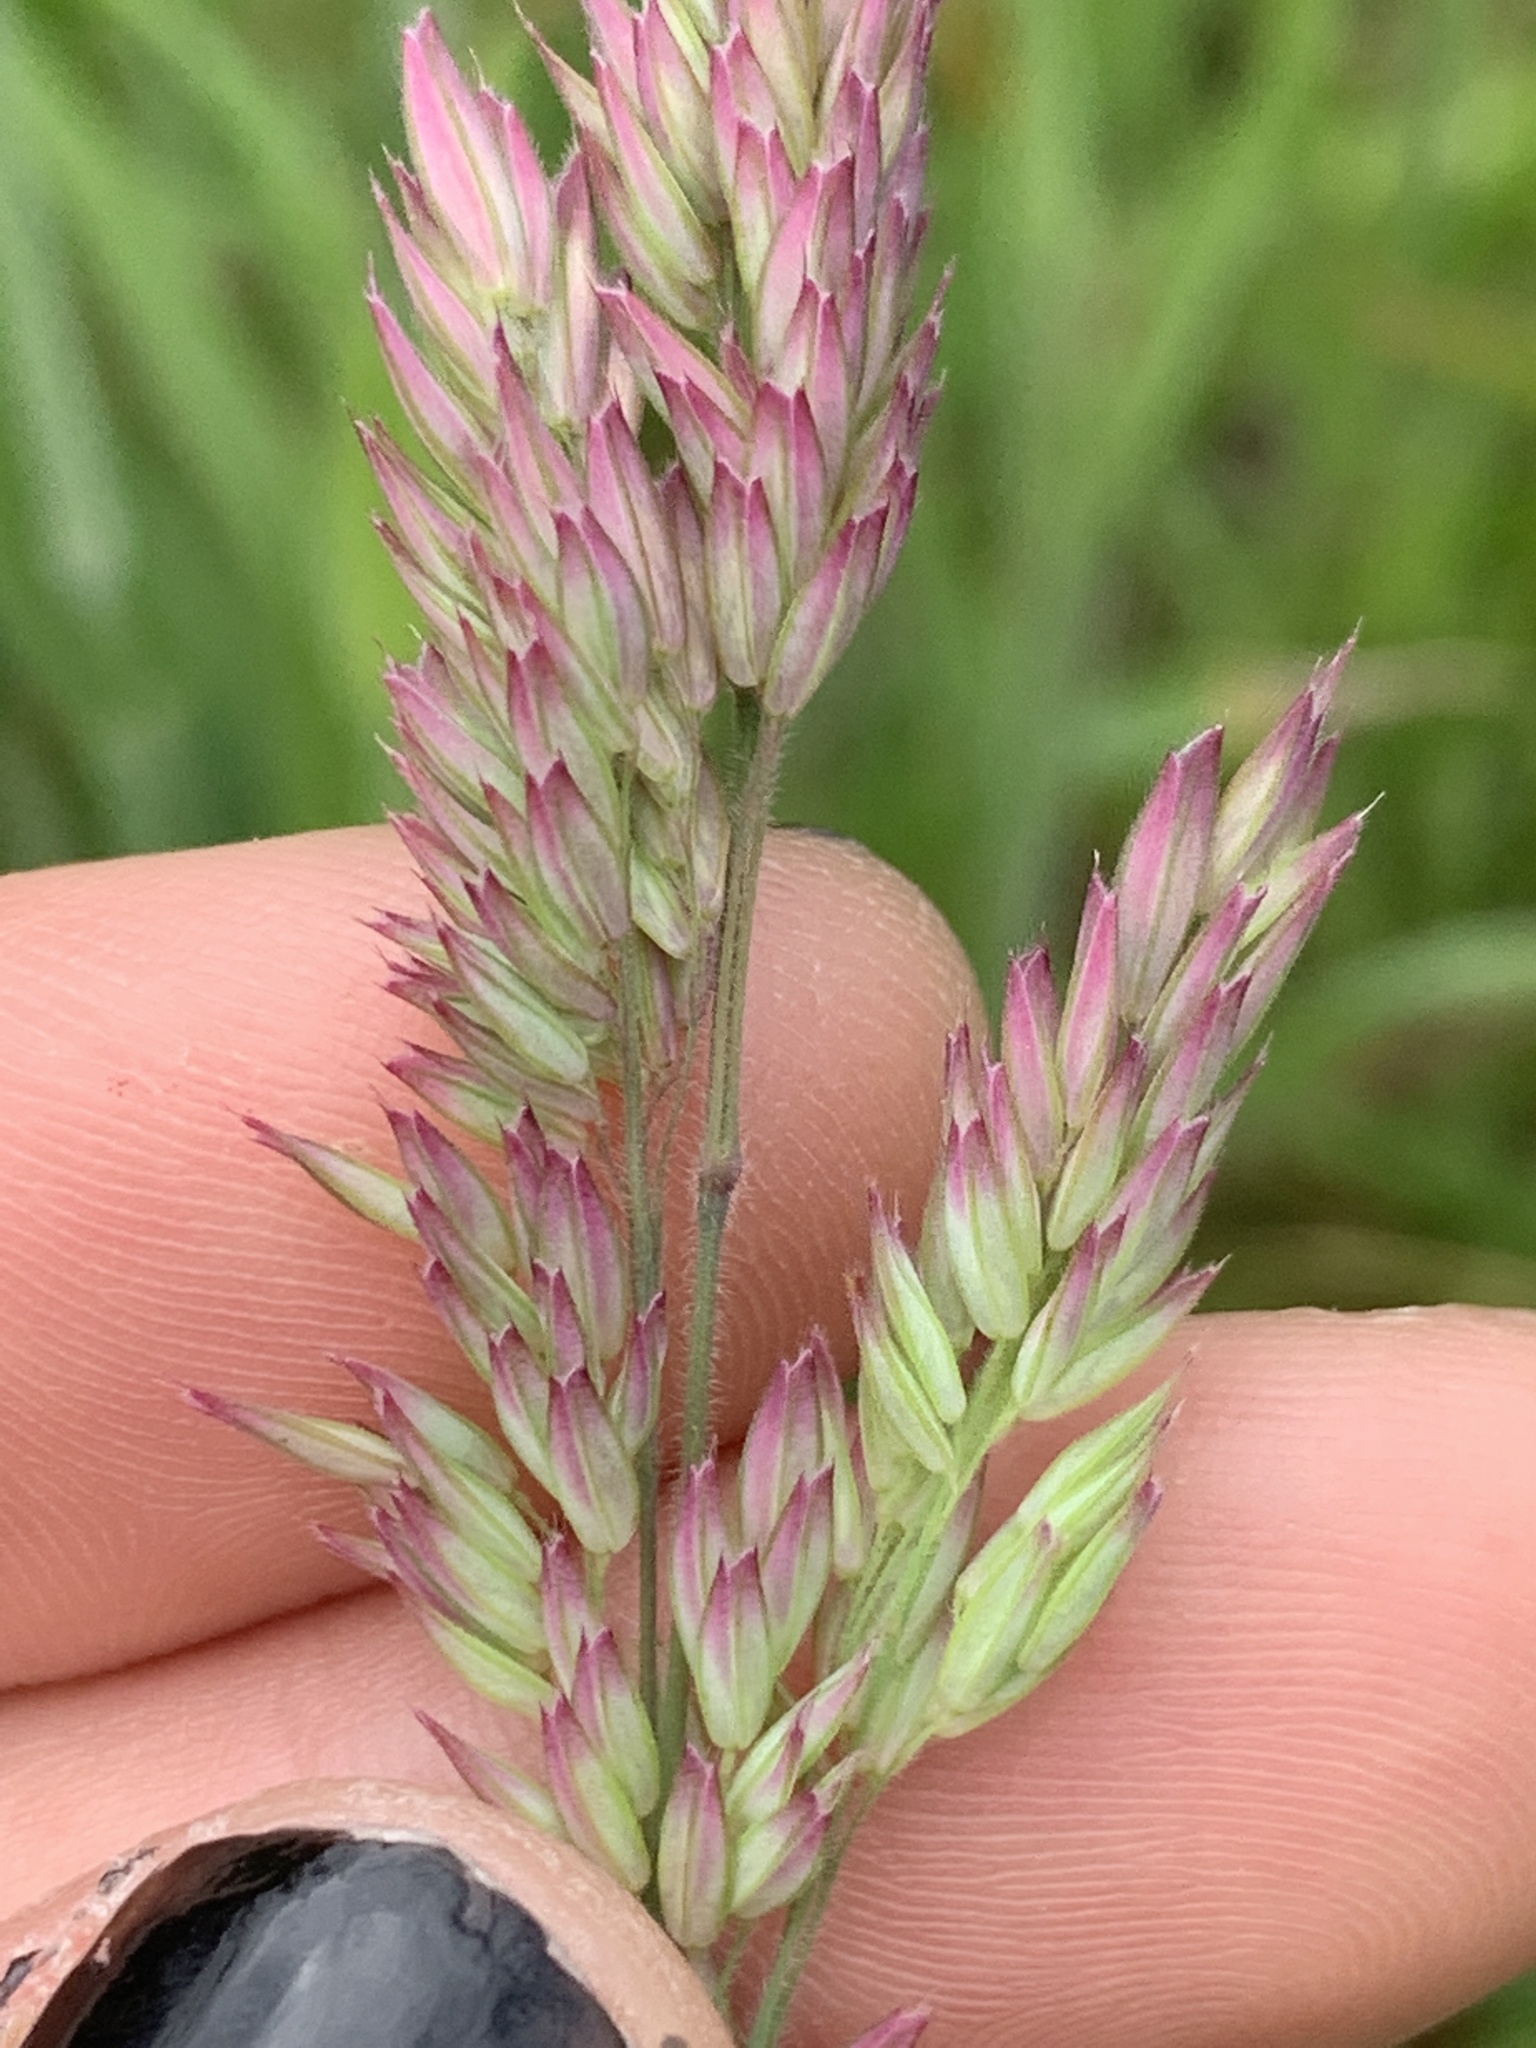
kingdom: Plantae
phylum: Tracheophyta
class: Liliopsida
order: Poales
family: Poaceae
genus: Holcus
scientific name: Holcus lanatus
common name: Yorkshire-fog
